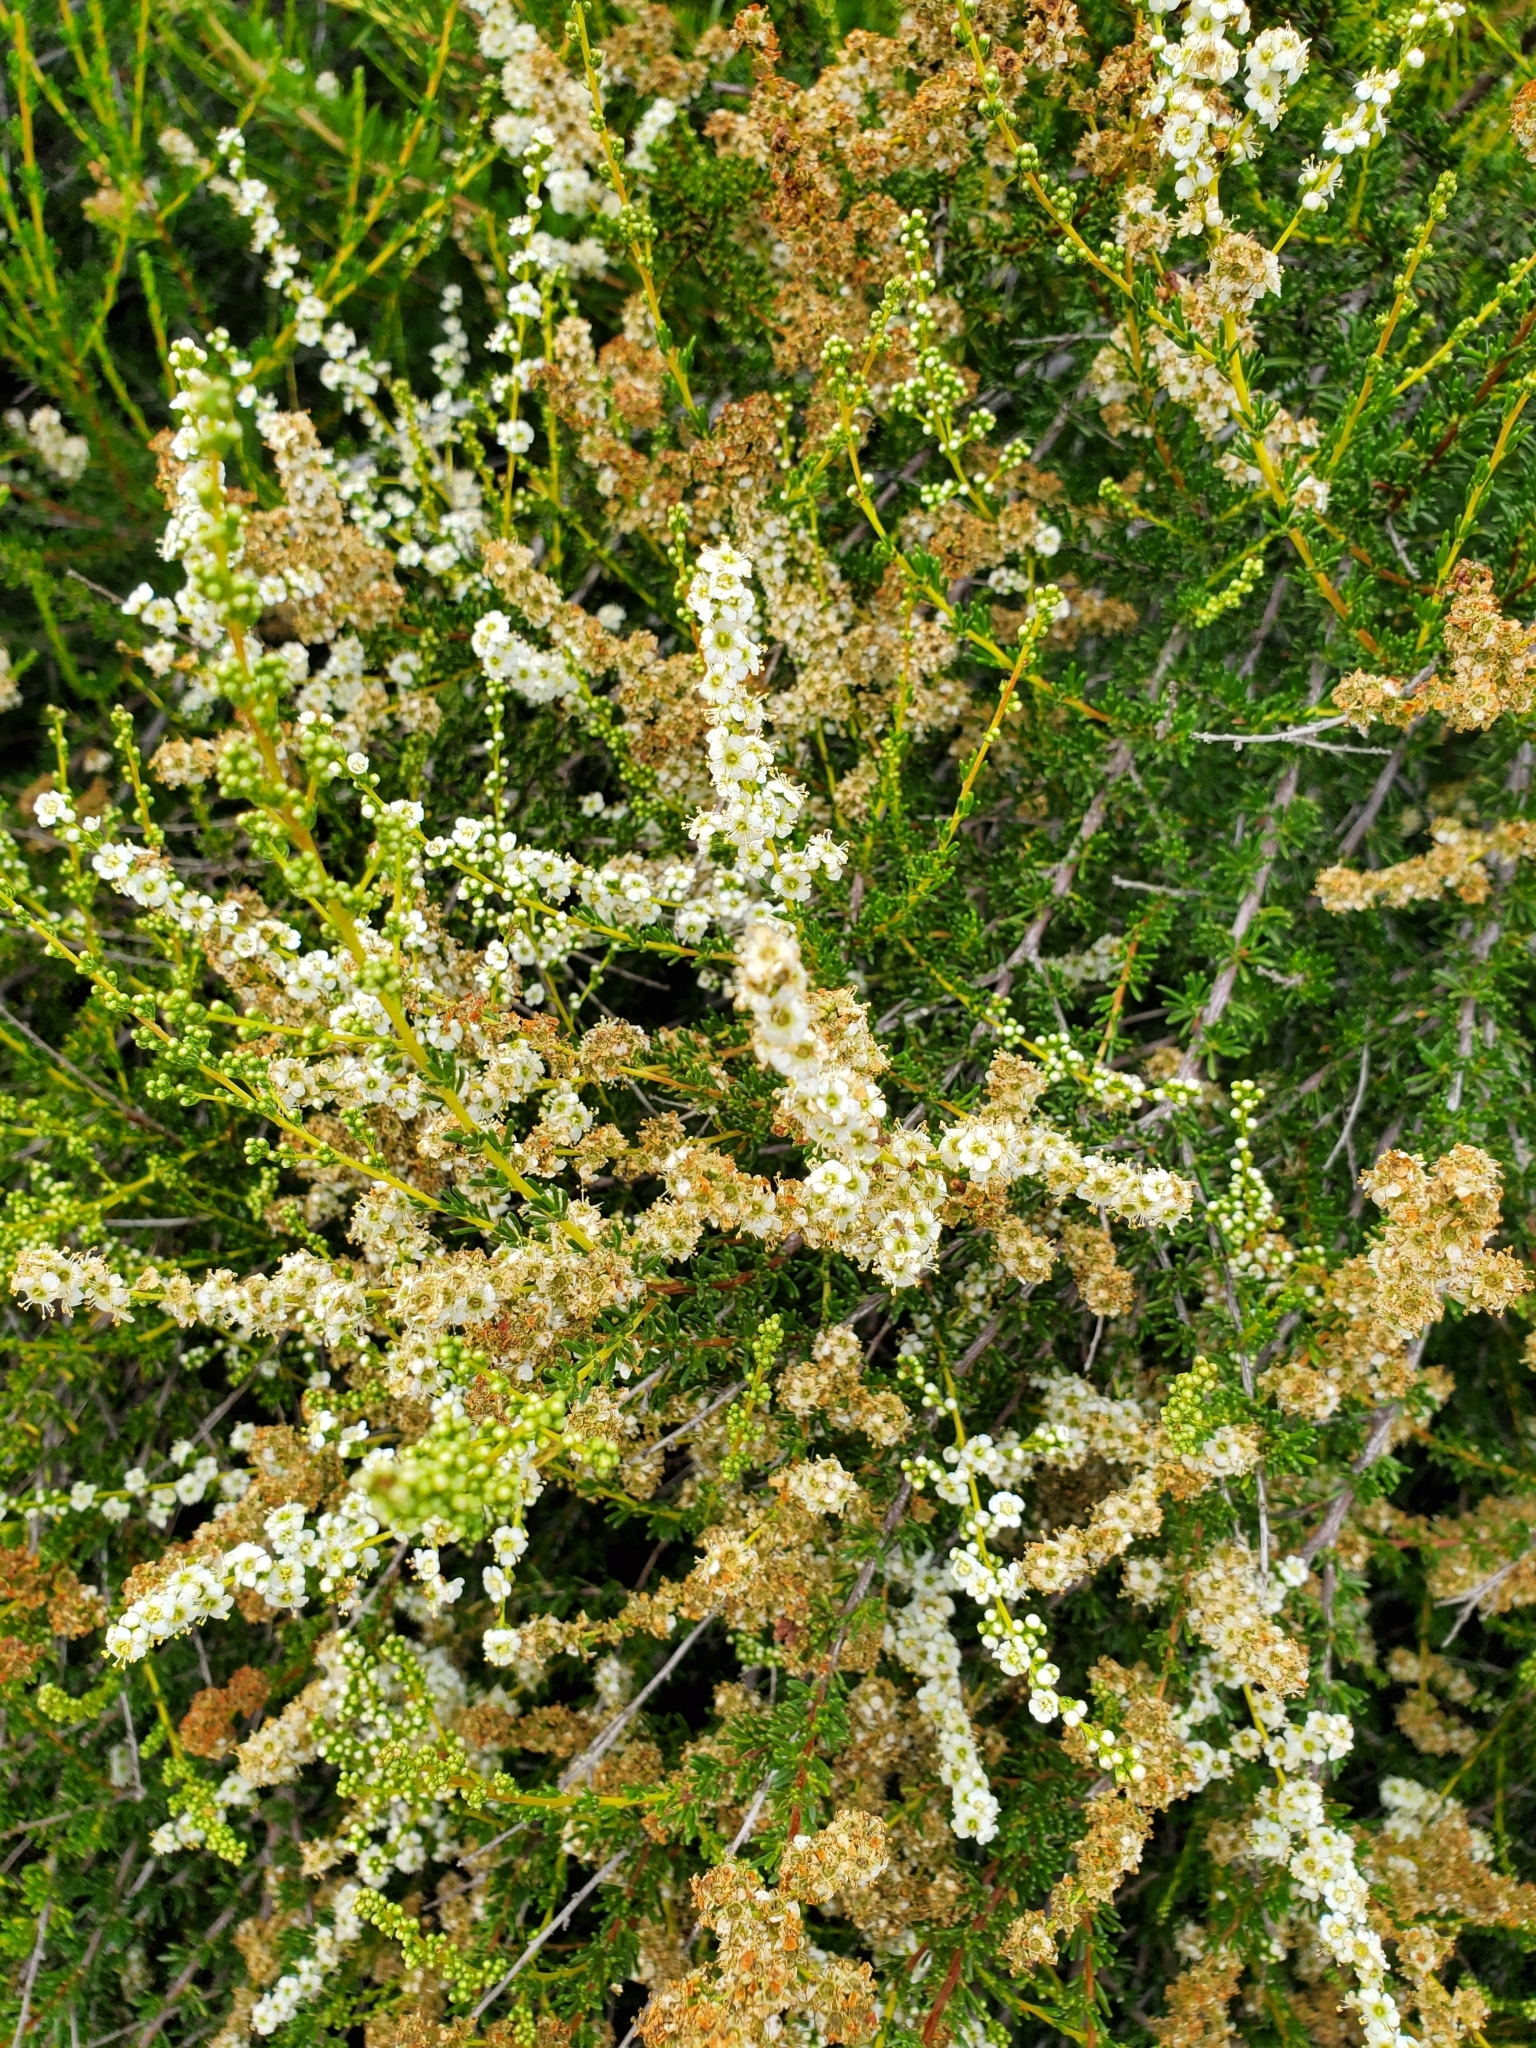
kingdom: Plantae
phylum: Tracheophyta
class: Magnoliopsida
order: Rosales
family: Rosaceae
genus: Adenostoma
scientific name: Adenostoma fasciculatum
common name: Chamise
